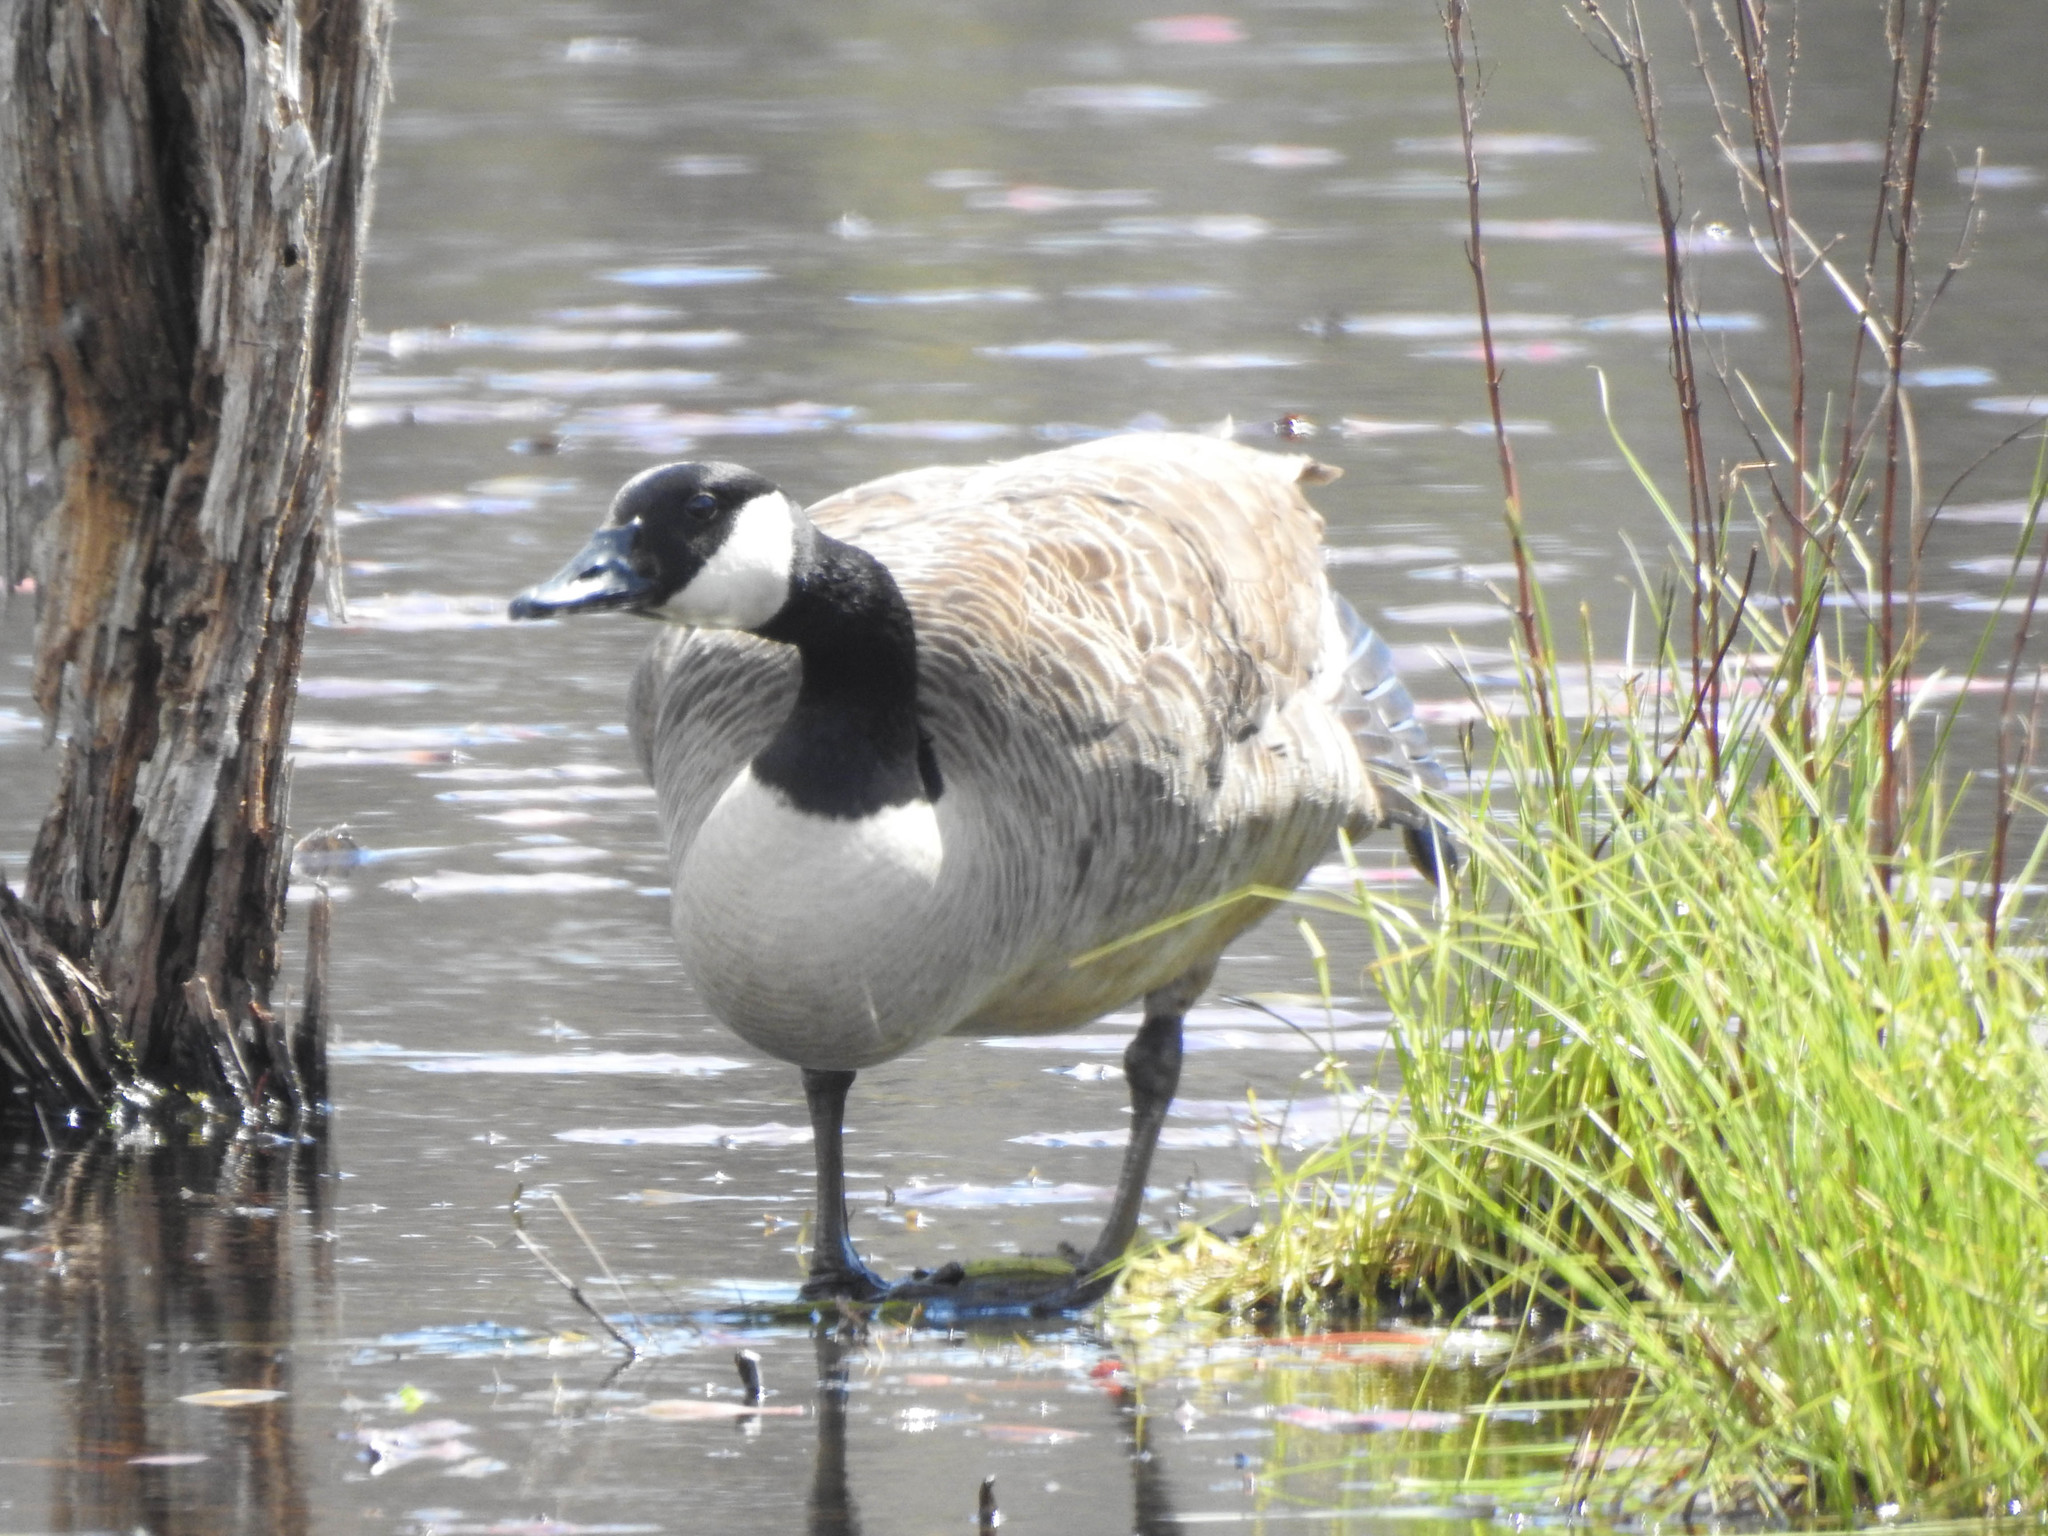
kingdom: Animalia
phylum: Chordata
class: Aves
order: Anseriformes
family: Anatidae
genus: Branta
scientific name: Branta canadensis
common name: Canada goose
